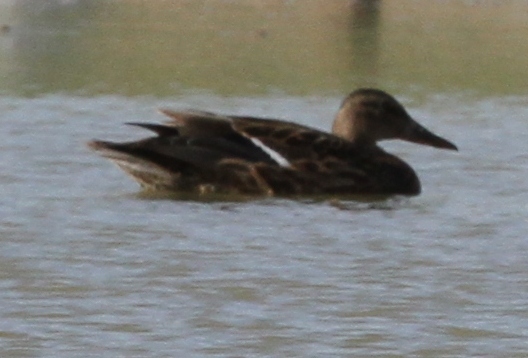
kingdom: Animalia
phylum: Chordata
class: Aves
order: Anseriformes
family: Anatidae
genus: Anas
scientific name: Anas platyrhynchos
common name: Mallard
